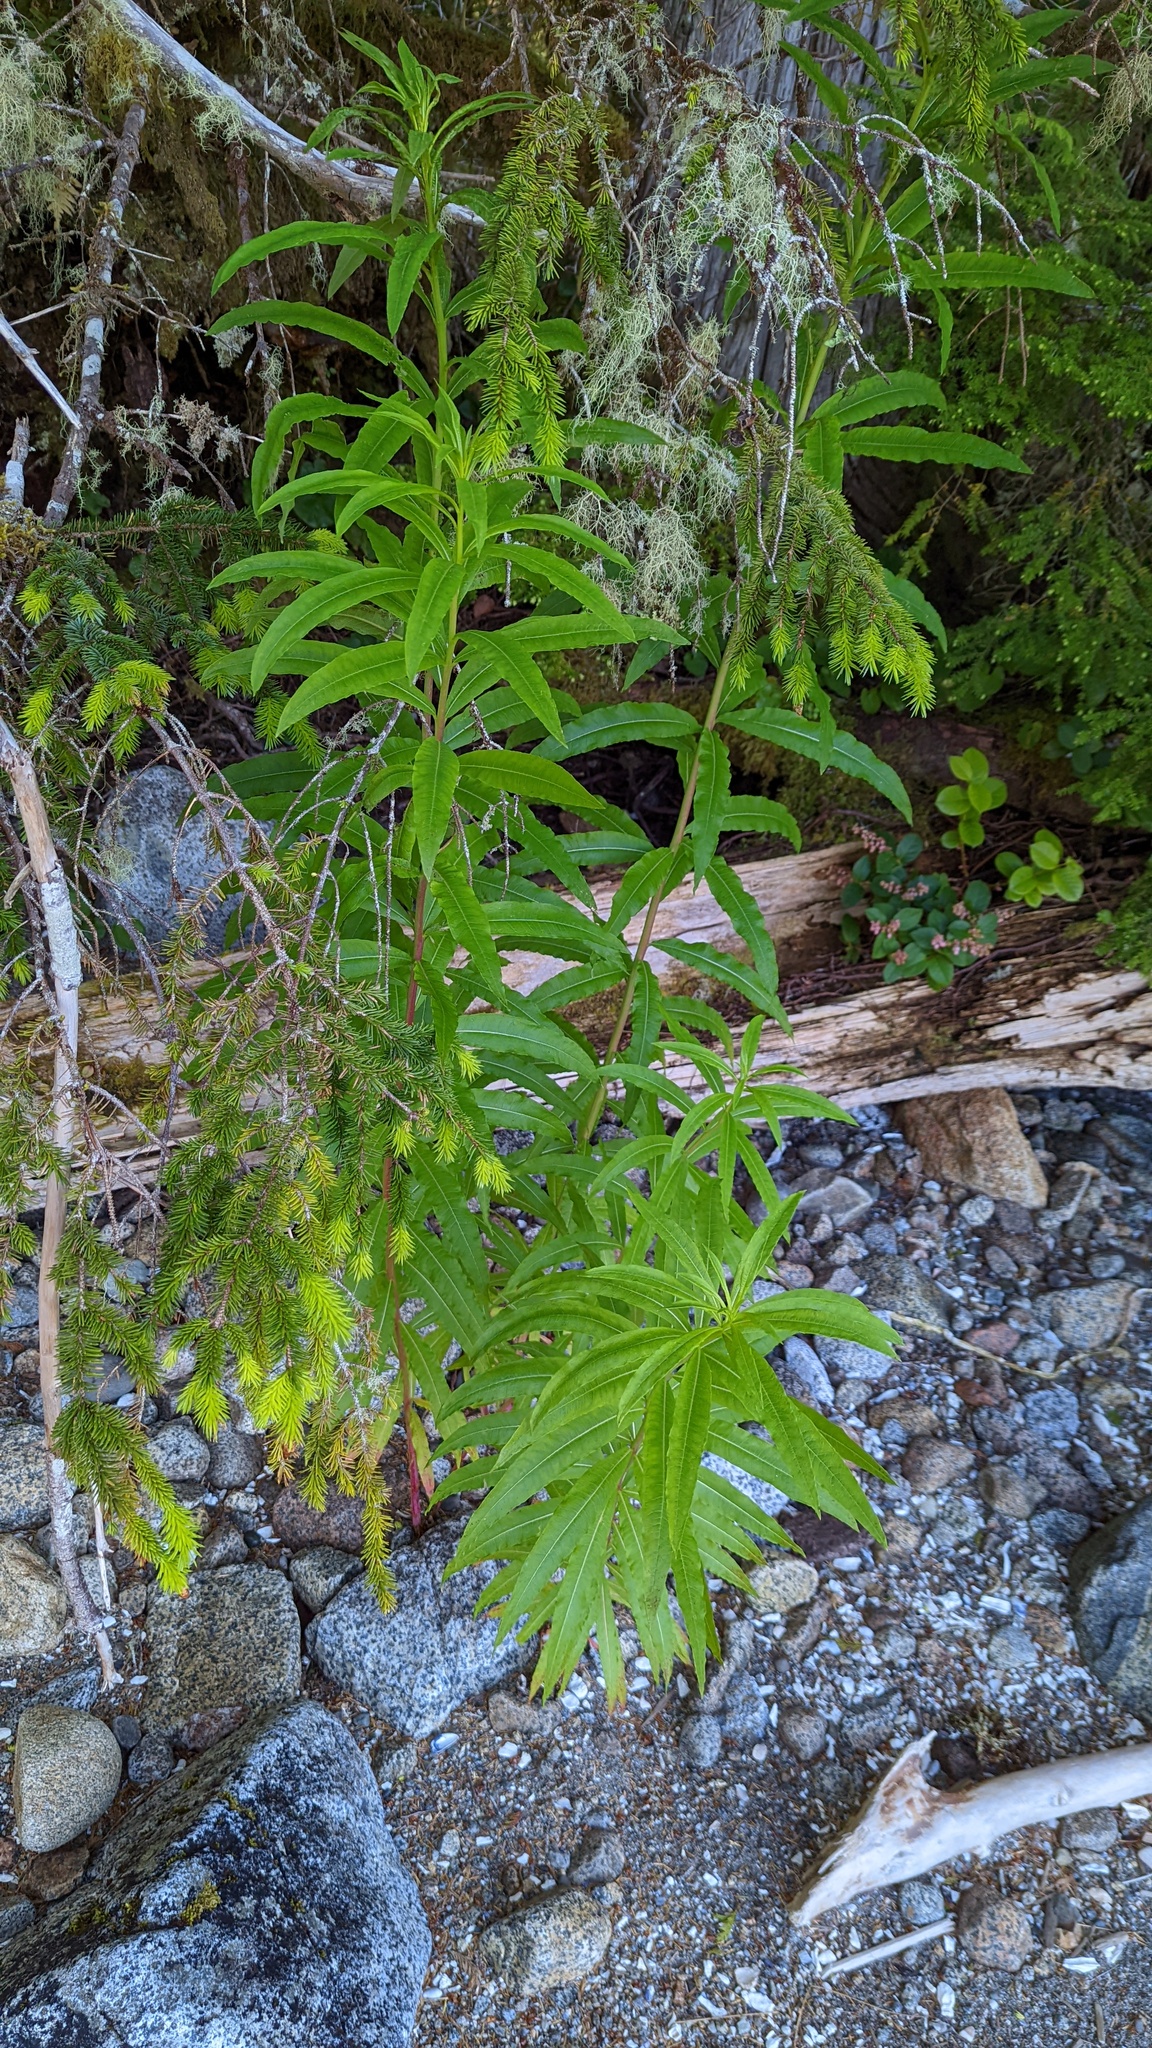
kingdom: Plantae
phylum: Tracheophyta
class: Magnoliopsida
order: Myrtales
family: Onagraceae
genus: Chamaenerion
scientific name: Chamaenerion angustifolium
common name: Fireweed
